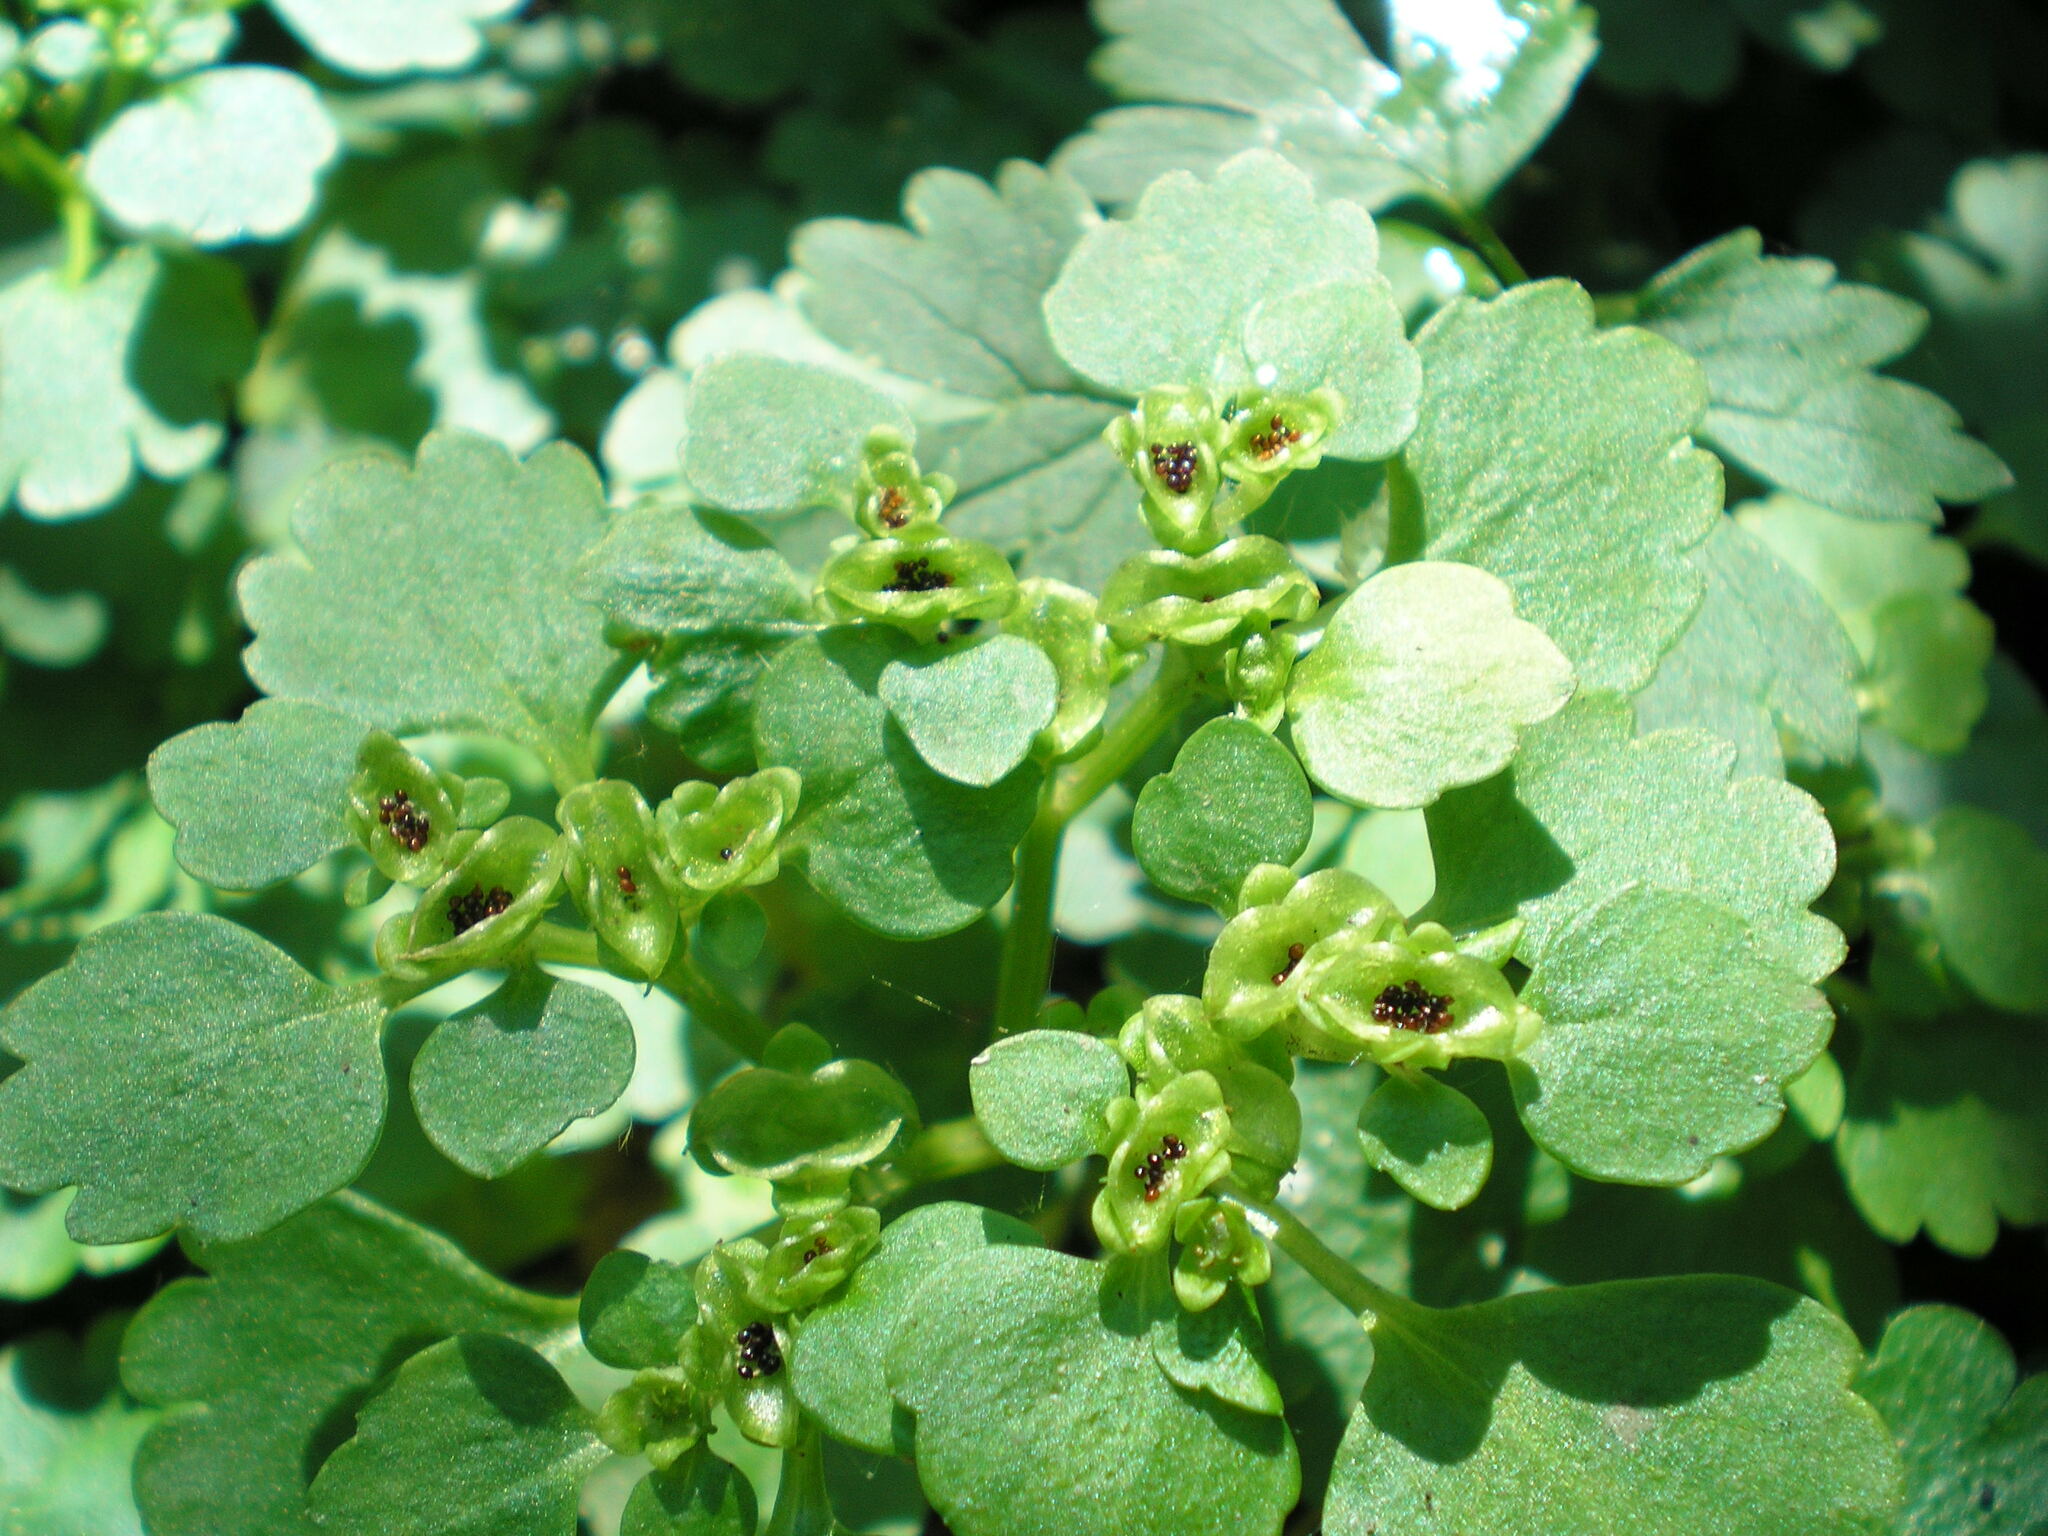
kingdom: Plantae
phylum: Tracheophyta
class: Magnoliopsida
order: Saxifragales
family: Saxifragaceae
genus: Chrysosplenium
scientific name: Chrysosplenium alternifolium
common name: Alternate-leaved golden-saxifrage
